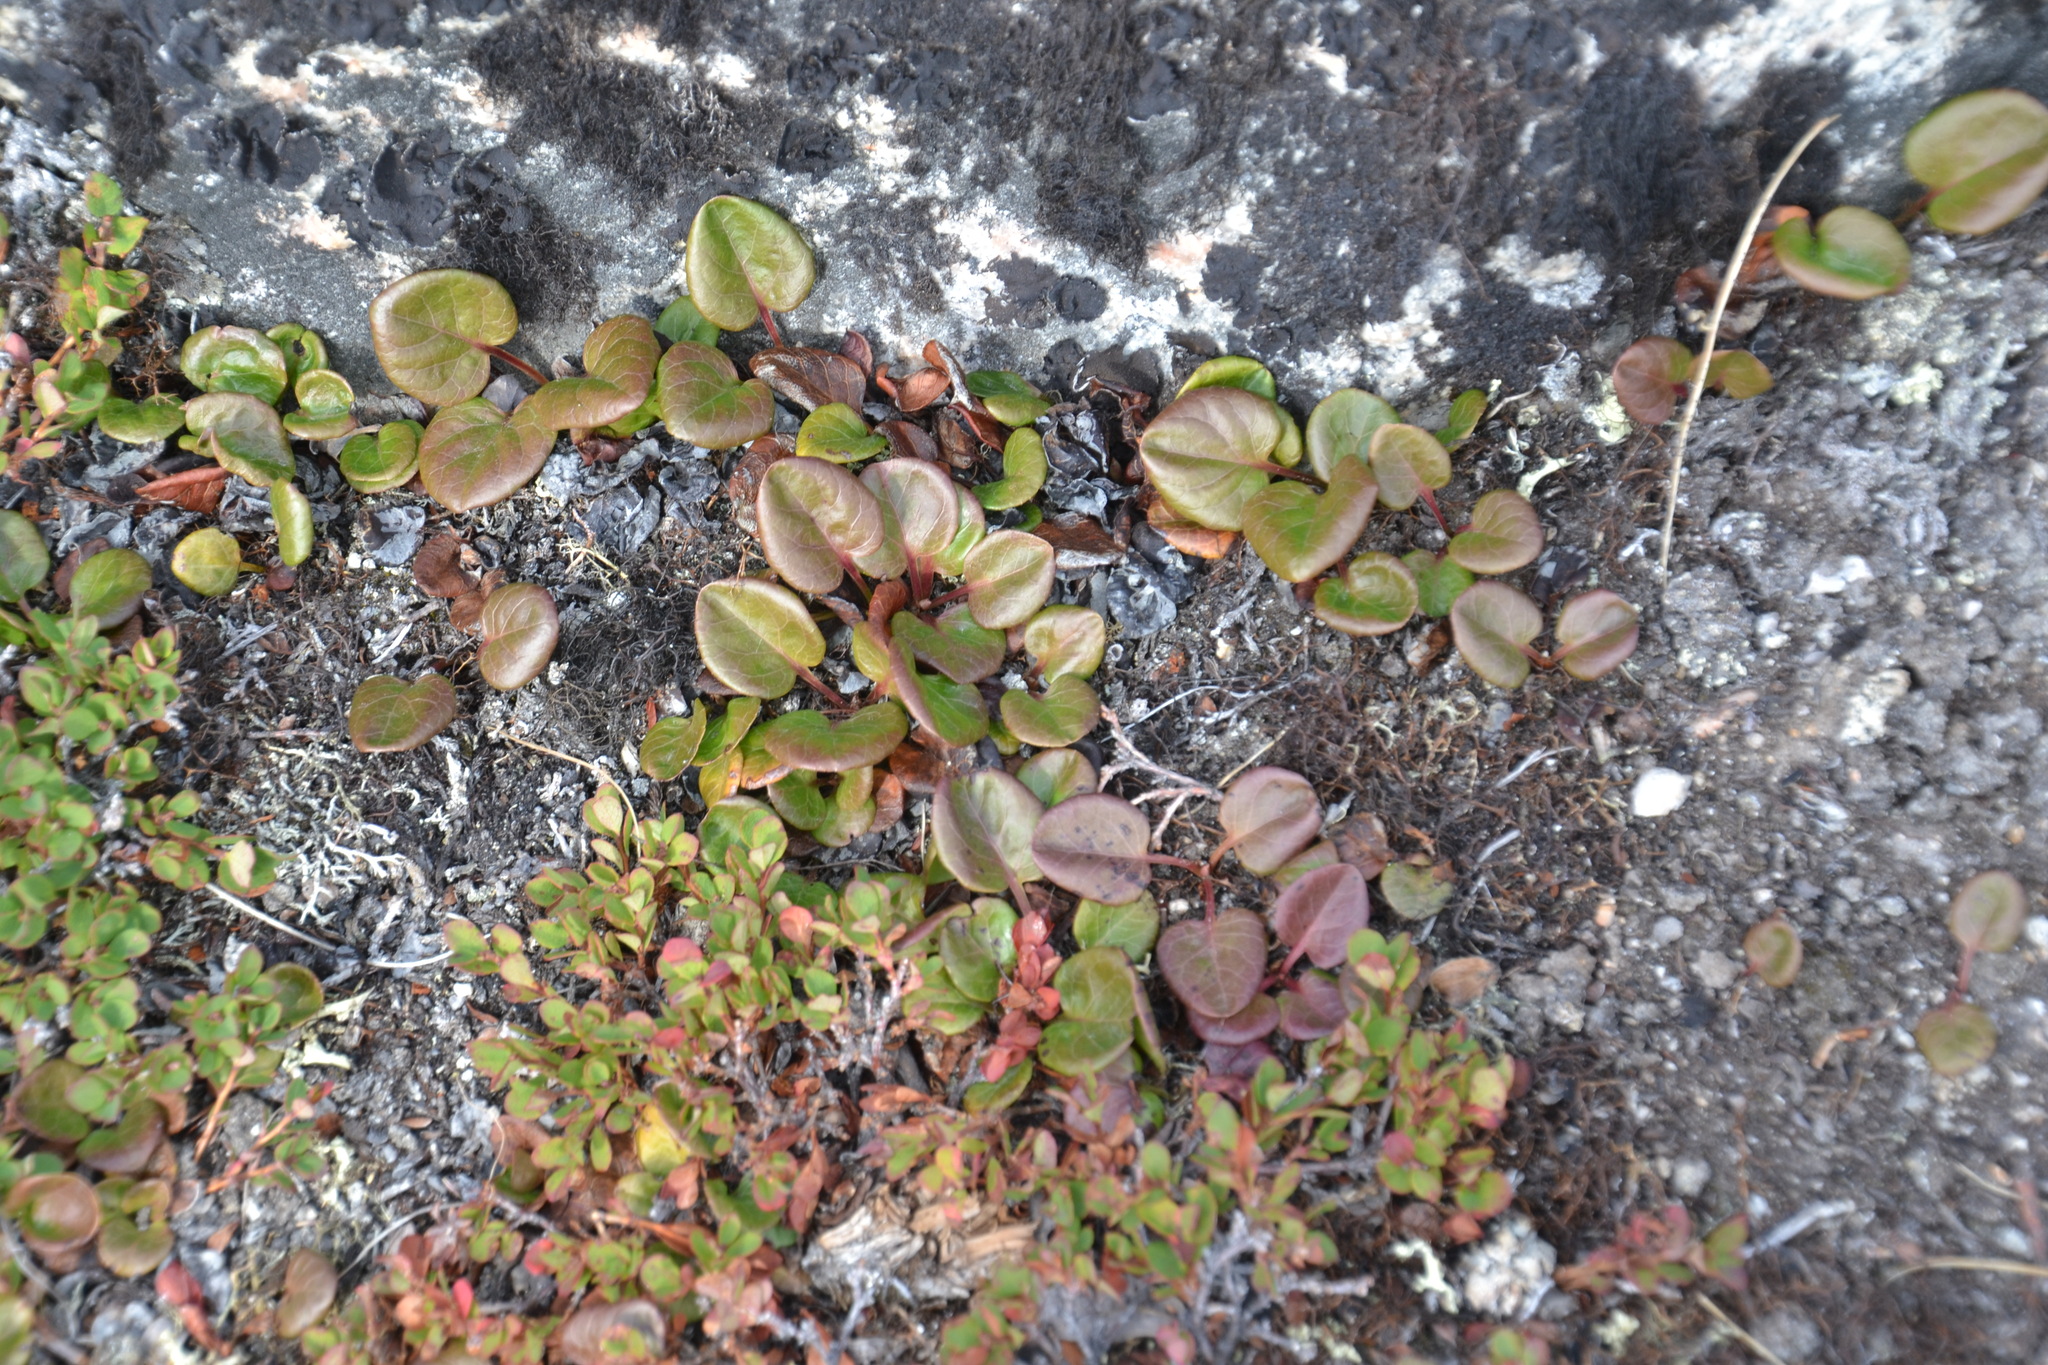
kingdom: Plantae
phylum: Tracheophyta
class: Magnoliopsida
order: Ericales
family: Ericaceae
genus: Pyrola
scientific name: Pyrola grandiflora
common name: Arctic pyrola
